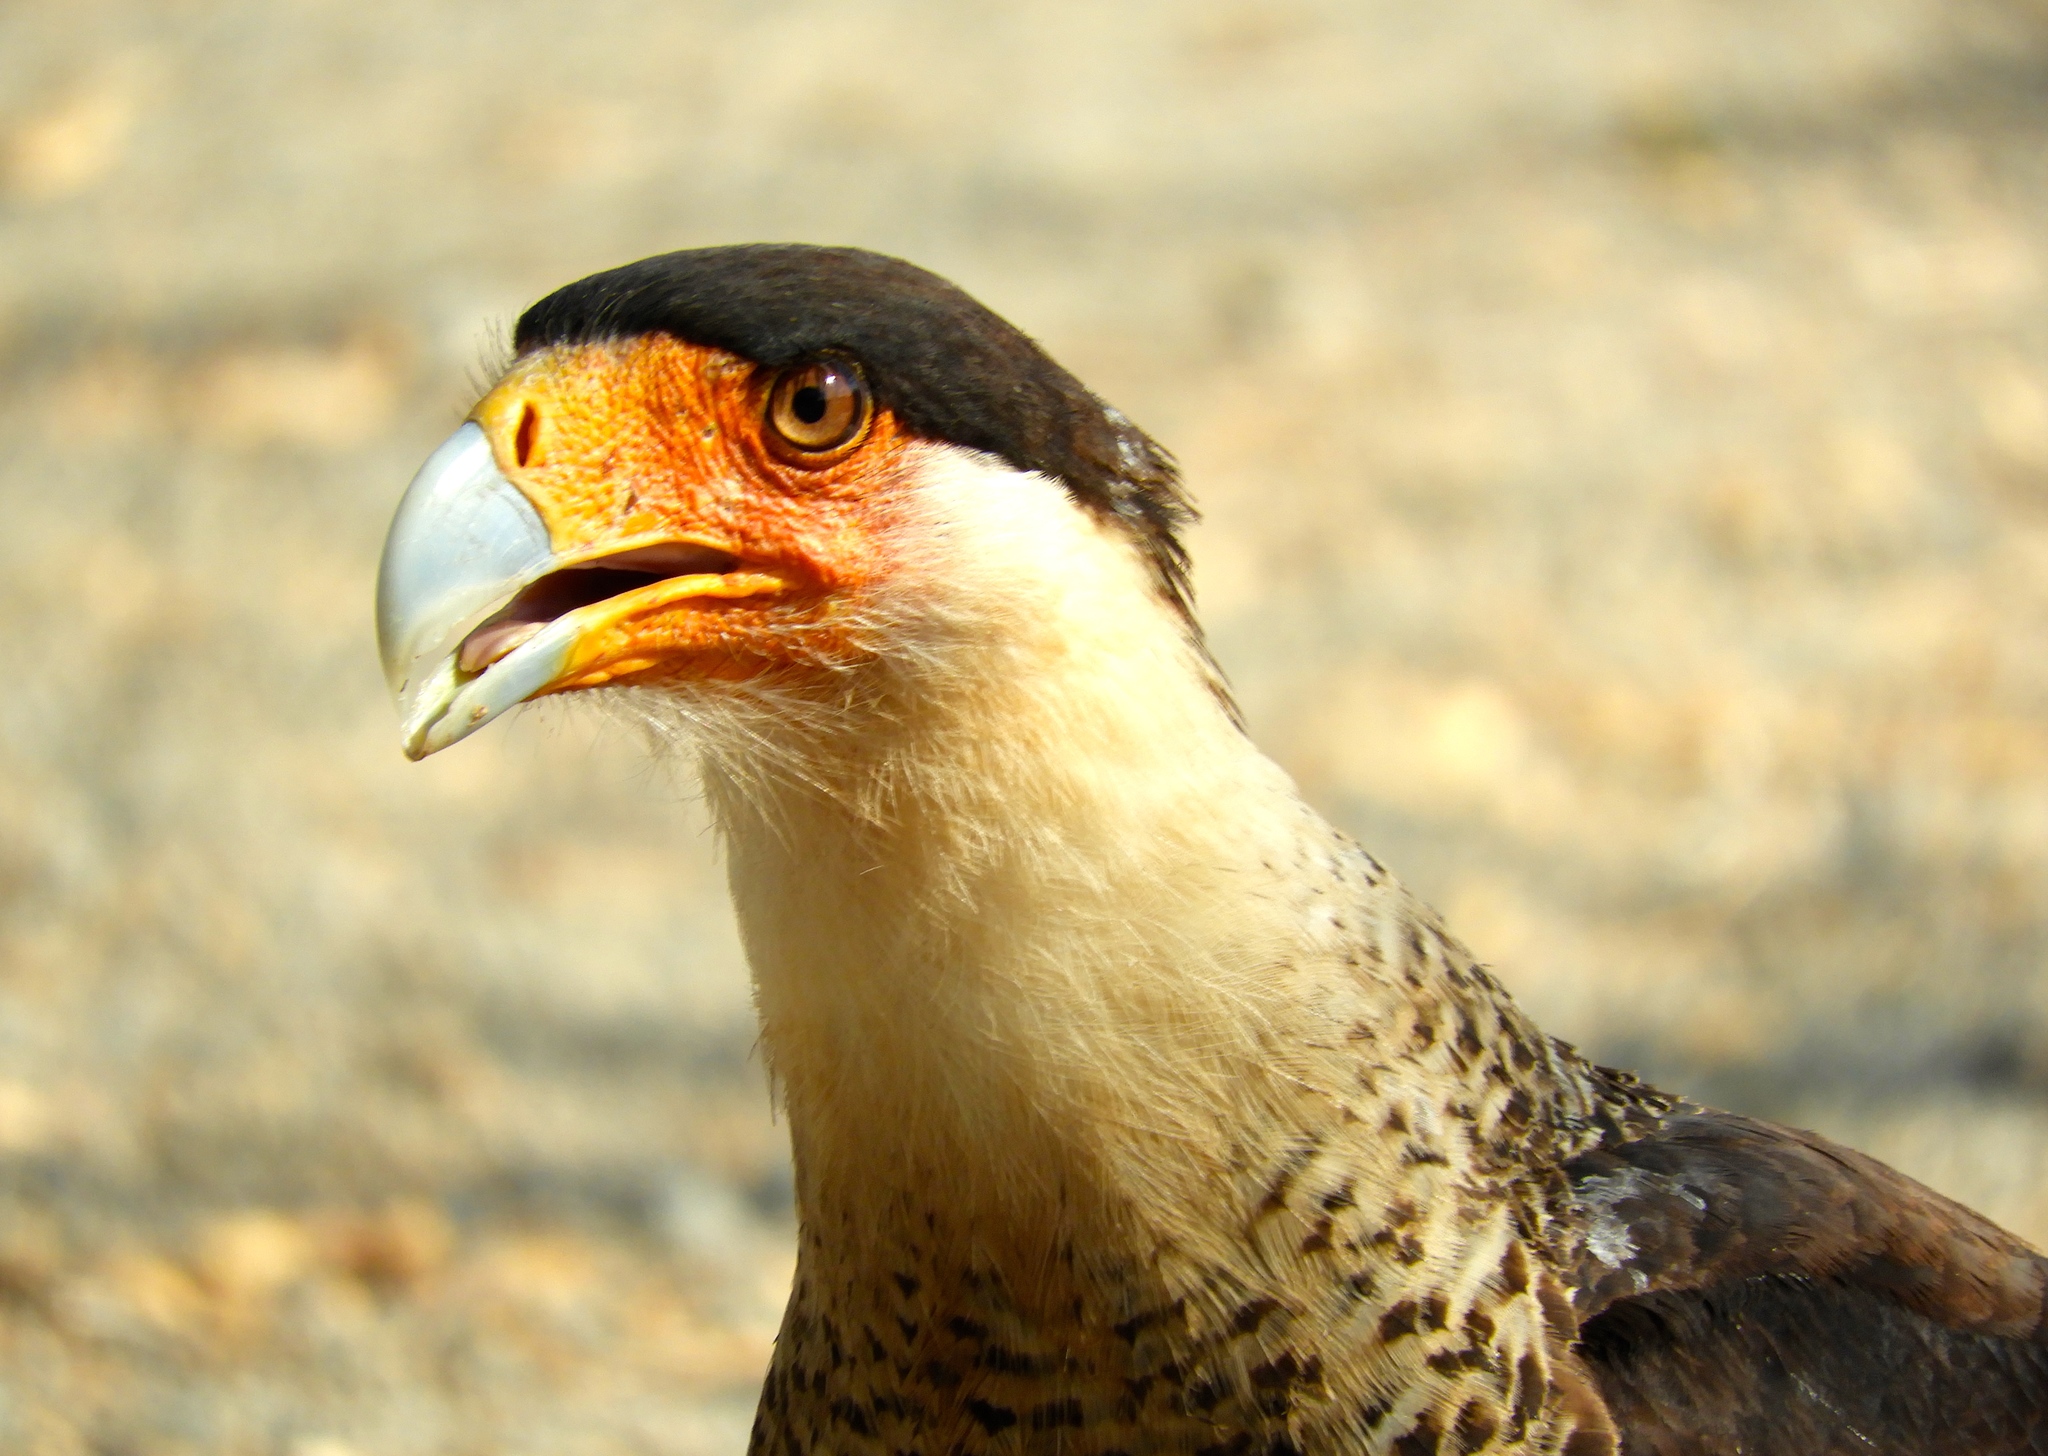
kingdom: Animalia
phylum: Chordata
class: Aves
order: Falconiformes
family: Falconidae
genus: Caracara
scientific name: Caracara plancus
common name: Southern caracara
